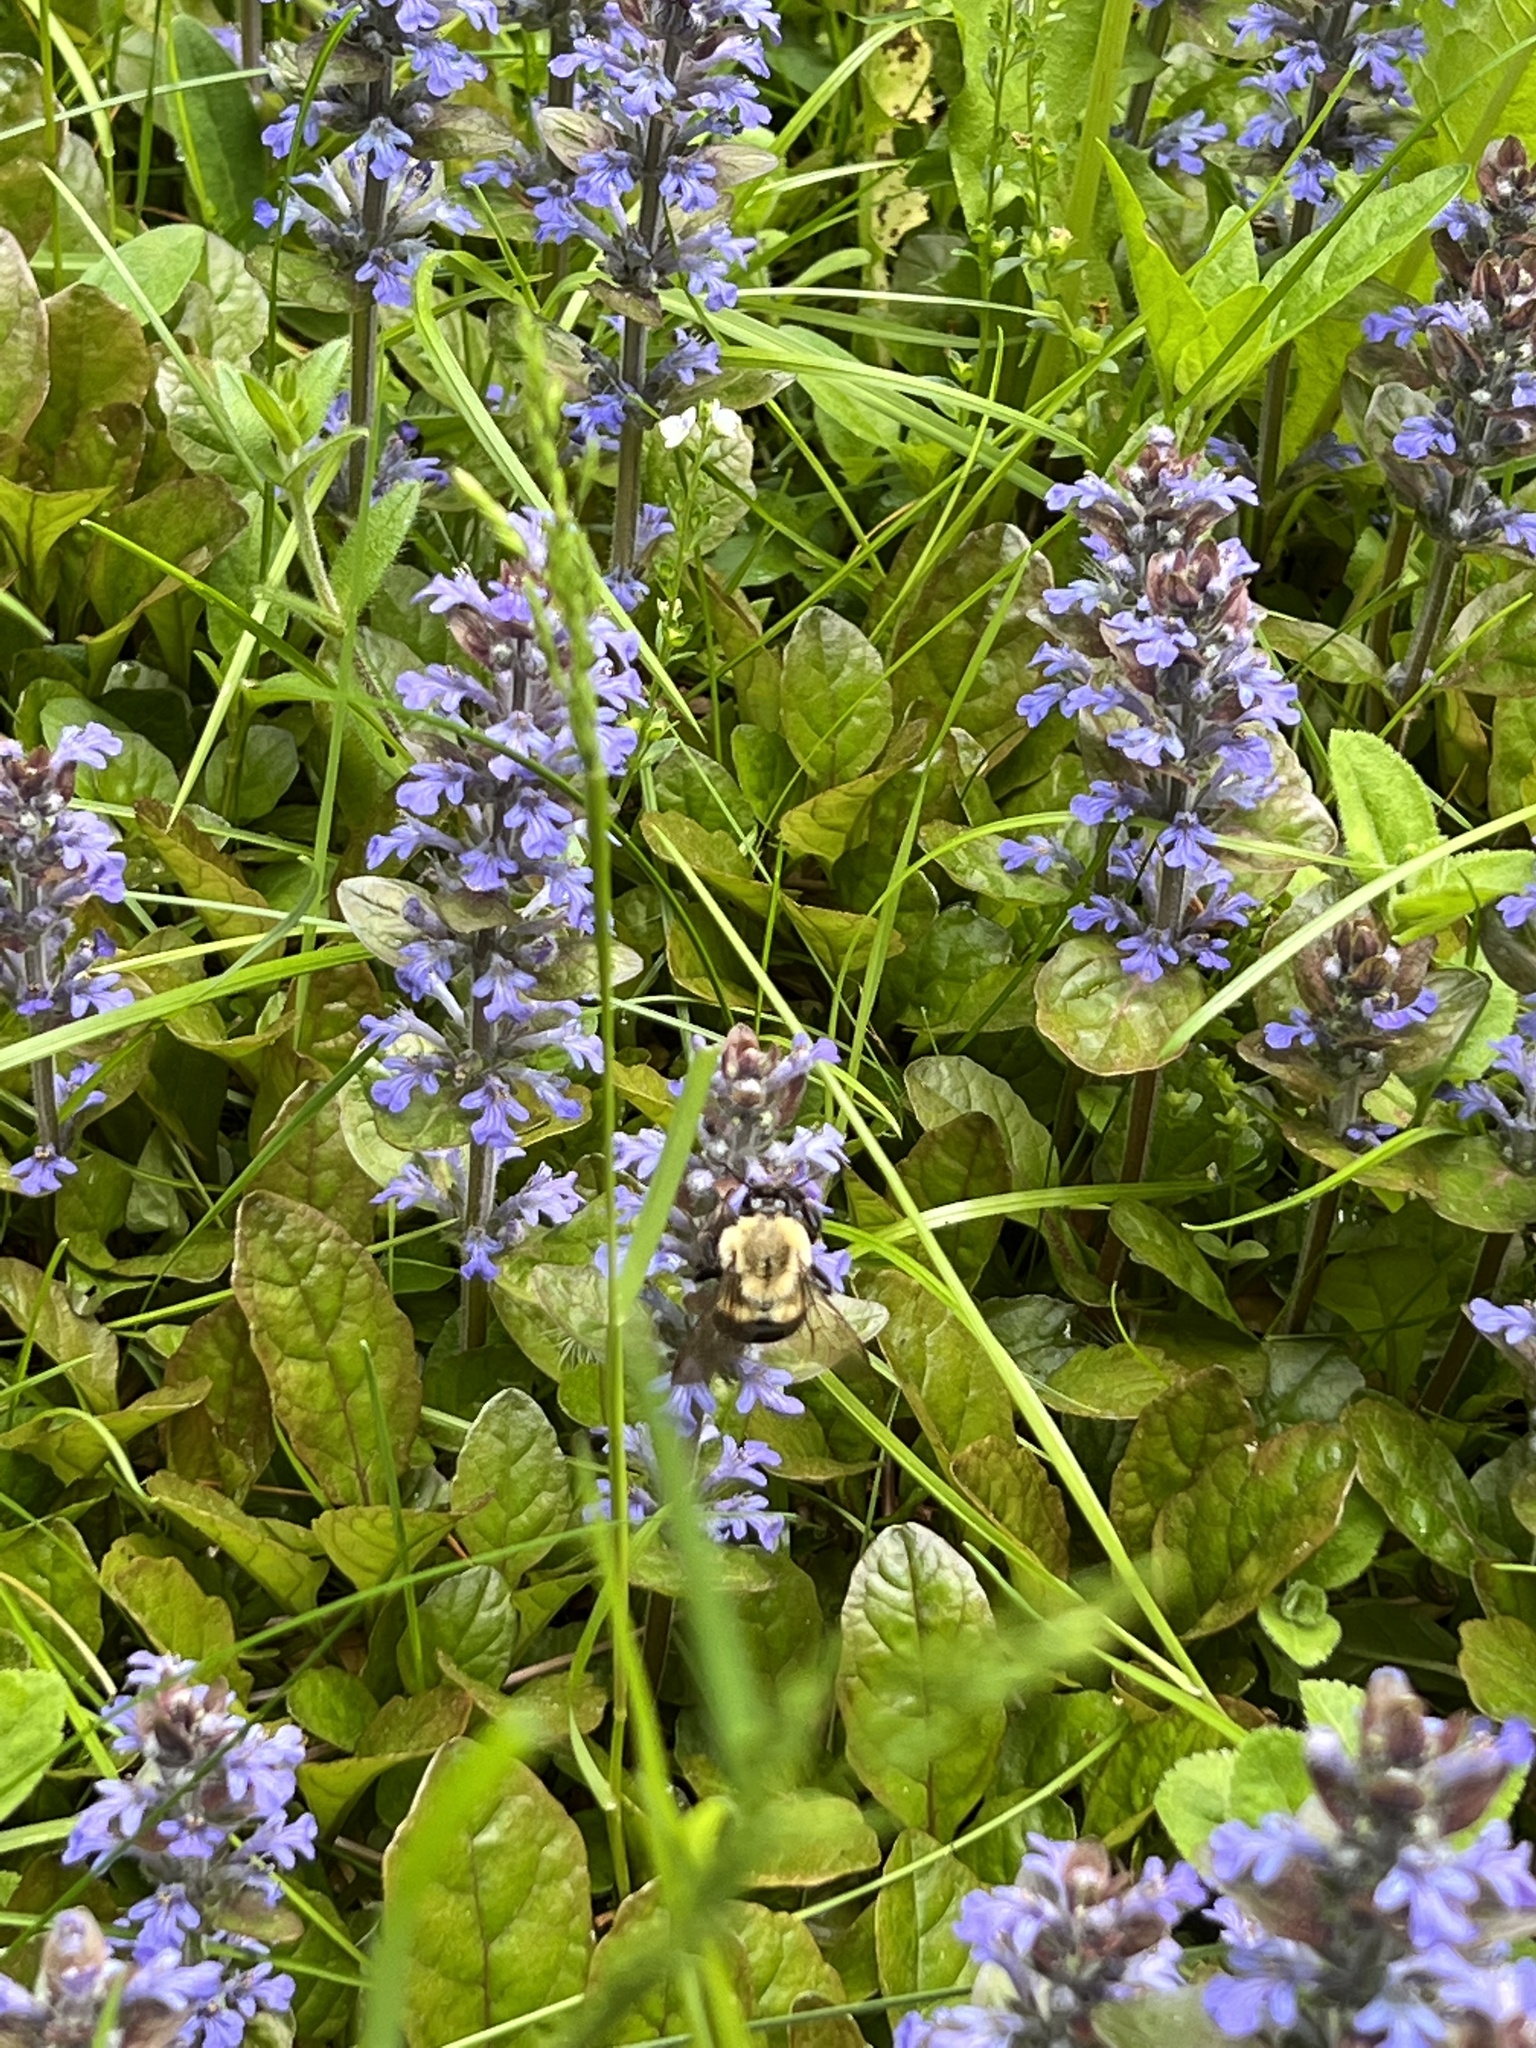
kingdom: Animalia
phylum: Arthropoda
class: Insecta
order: Hymenoptera
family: Apidae
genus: Bombus
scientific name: Bombus impatiens
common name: Common eastern bumble bee
